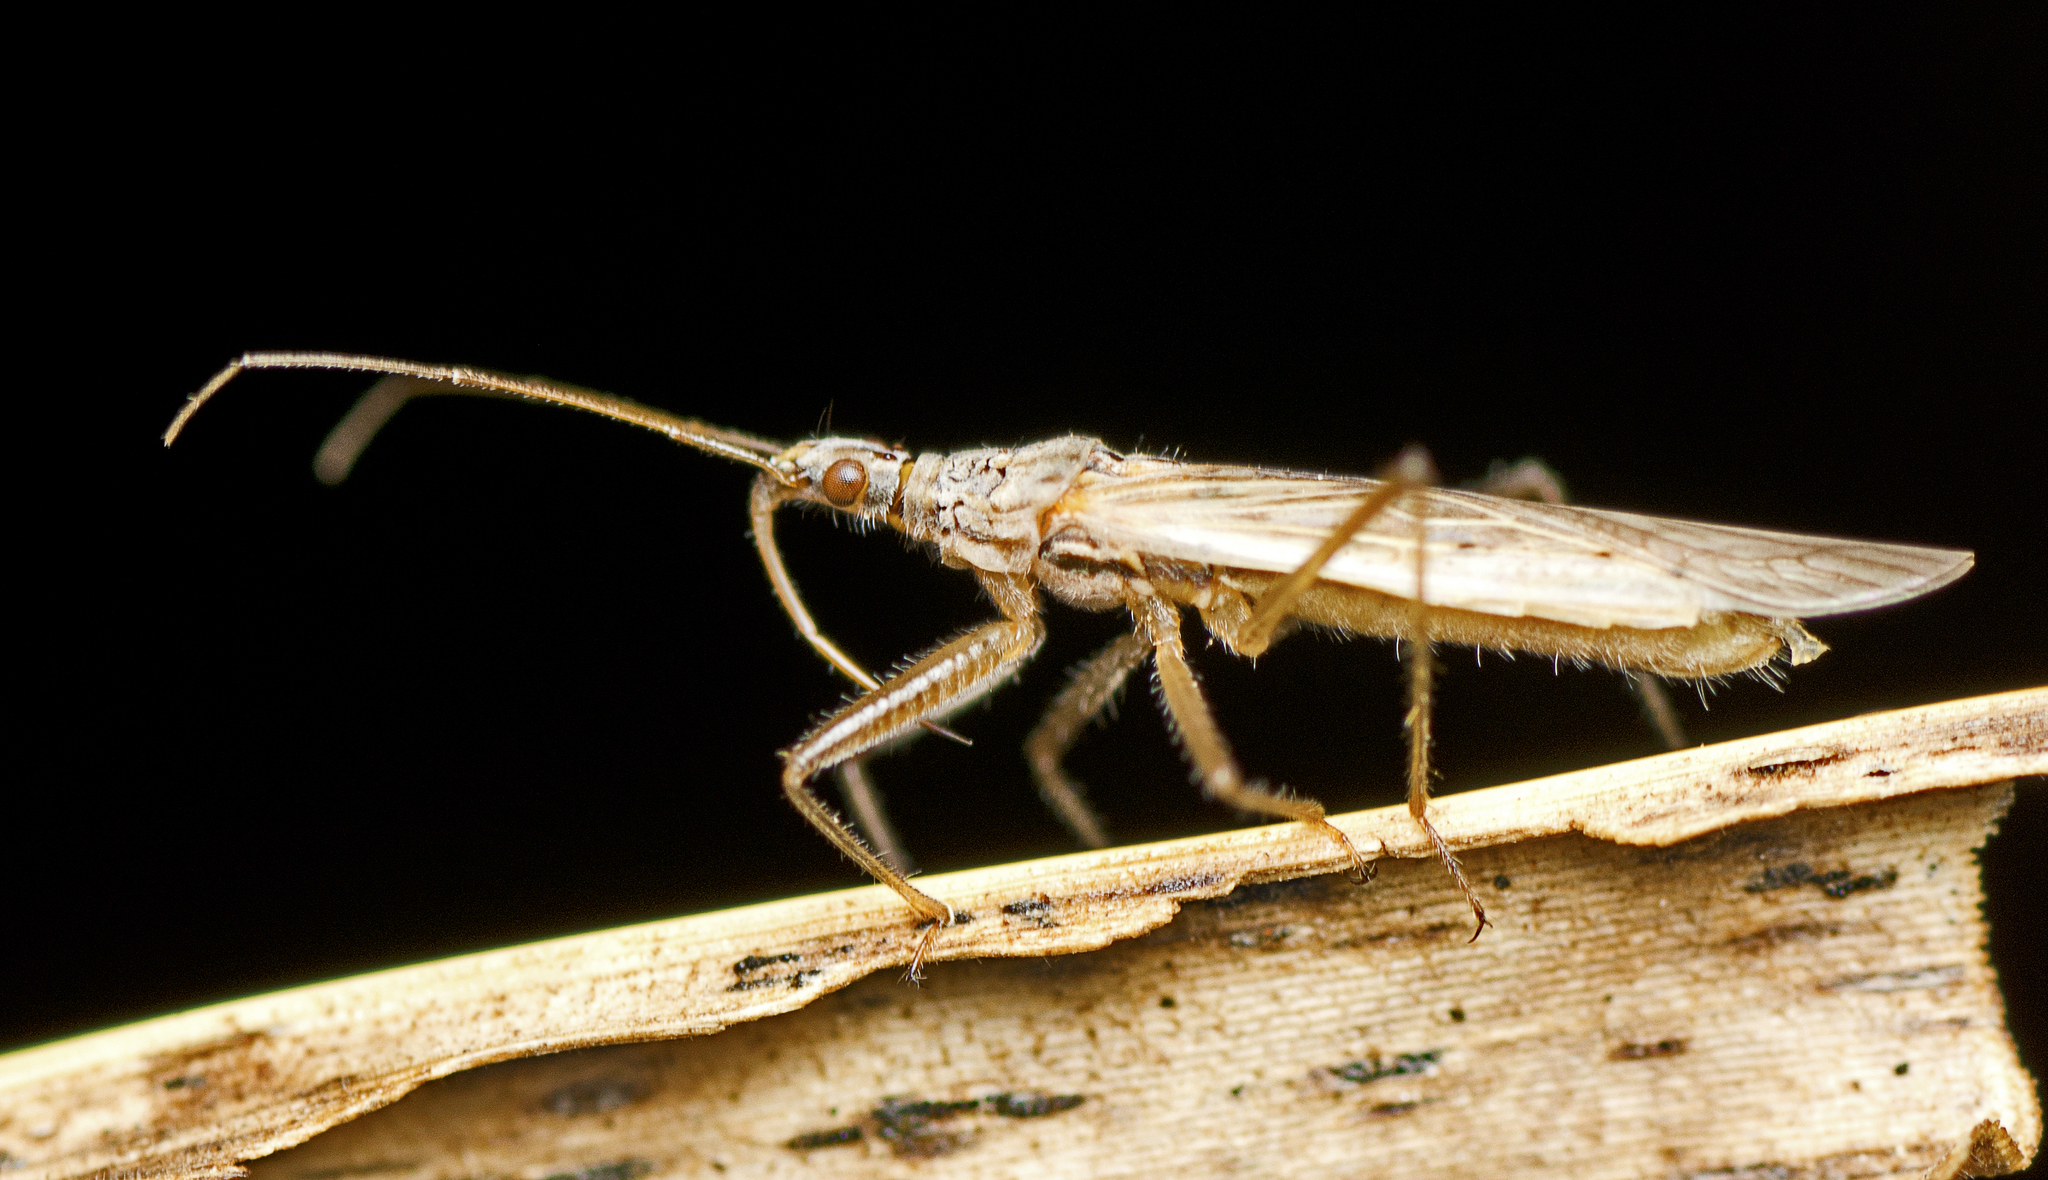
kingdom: Animalia
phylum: Arthropoda
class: Insecta
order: Hemiptera
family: Nabidae
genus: Nabis
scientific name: Nabis kinbergii
